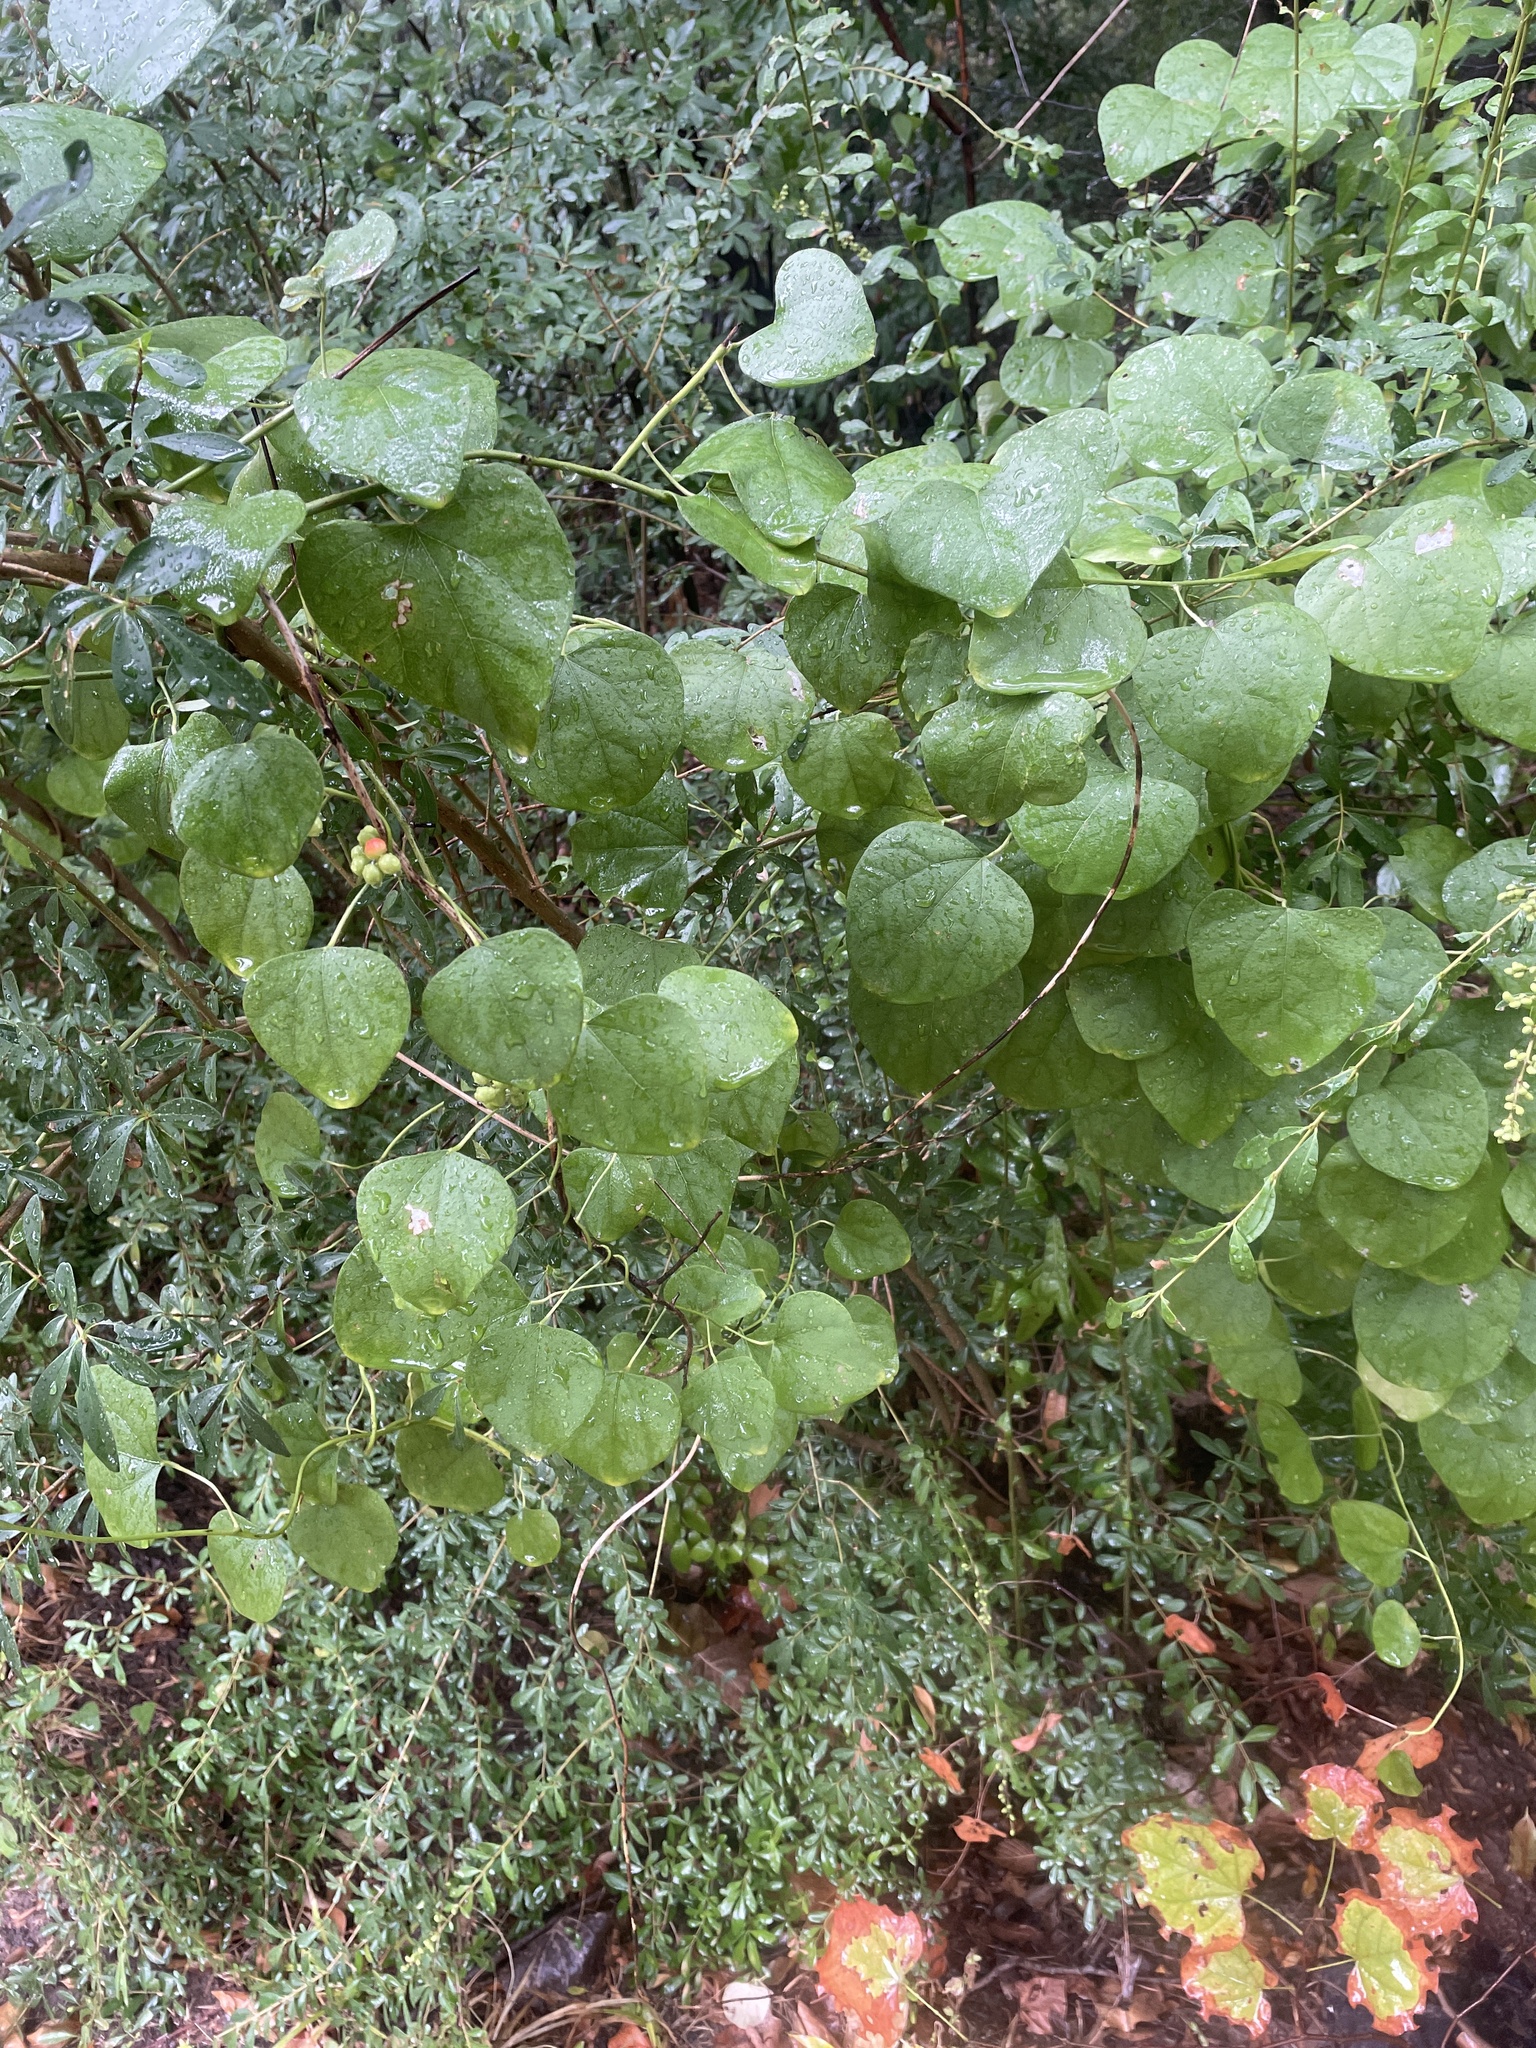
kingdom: Plantae
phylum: Tracheophyta
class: Magnoliopsida
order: Ranunculales
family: Menispermaceae
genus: Cocculus
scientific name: Cocculus carolinus
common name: Carolina moonseed
